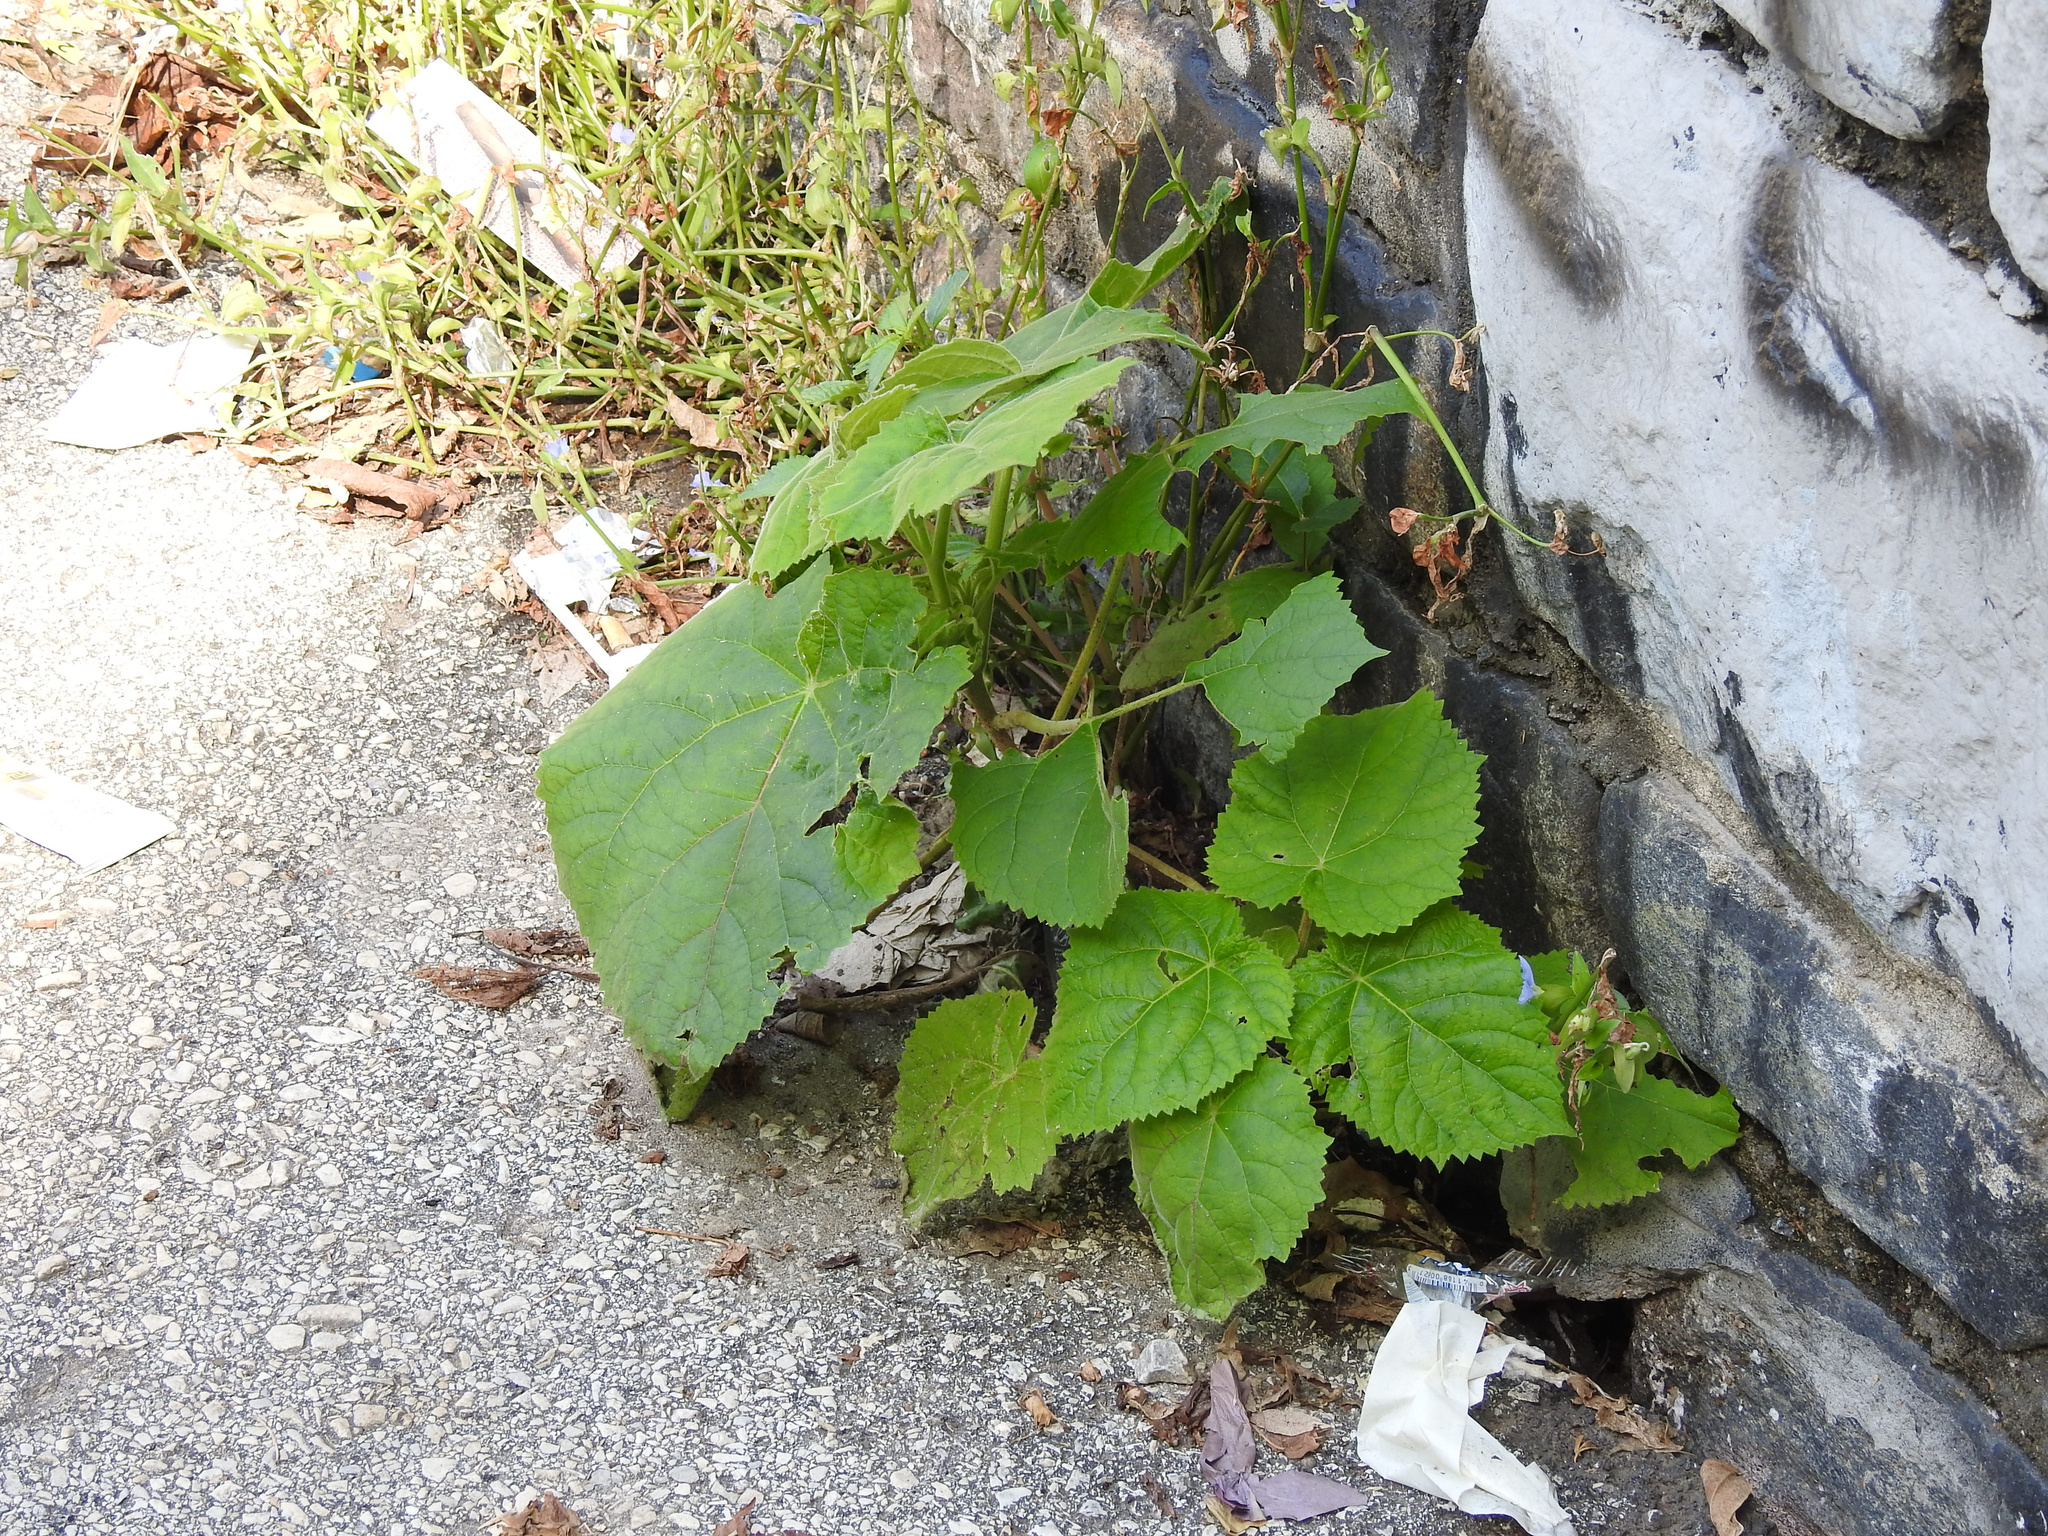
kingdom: Plantae
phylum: Tracheophyta
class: Magnoliopsida
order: Lamiales
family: Paulowniaceae
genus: Paulownia
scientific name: Paulownia tomentosa
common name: Foxglove-tree
